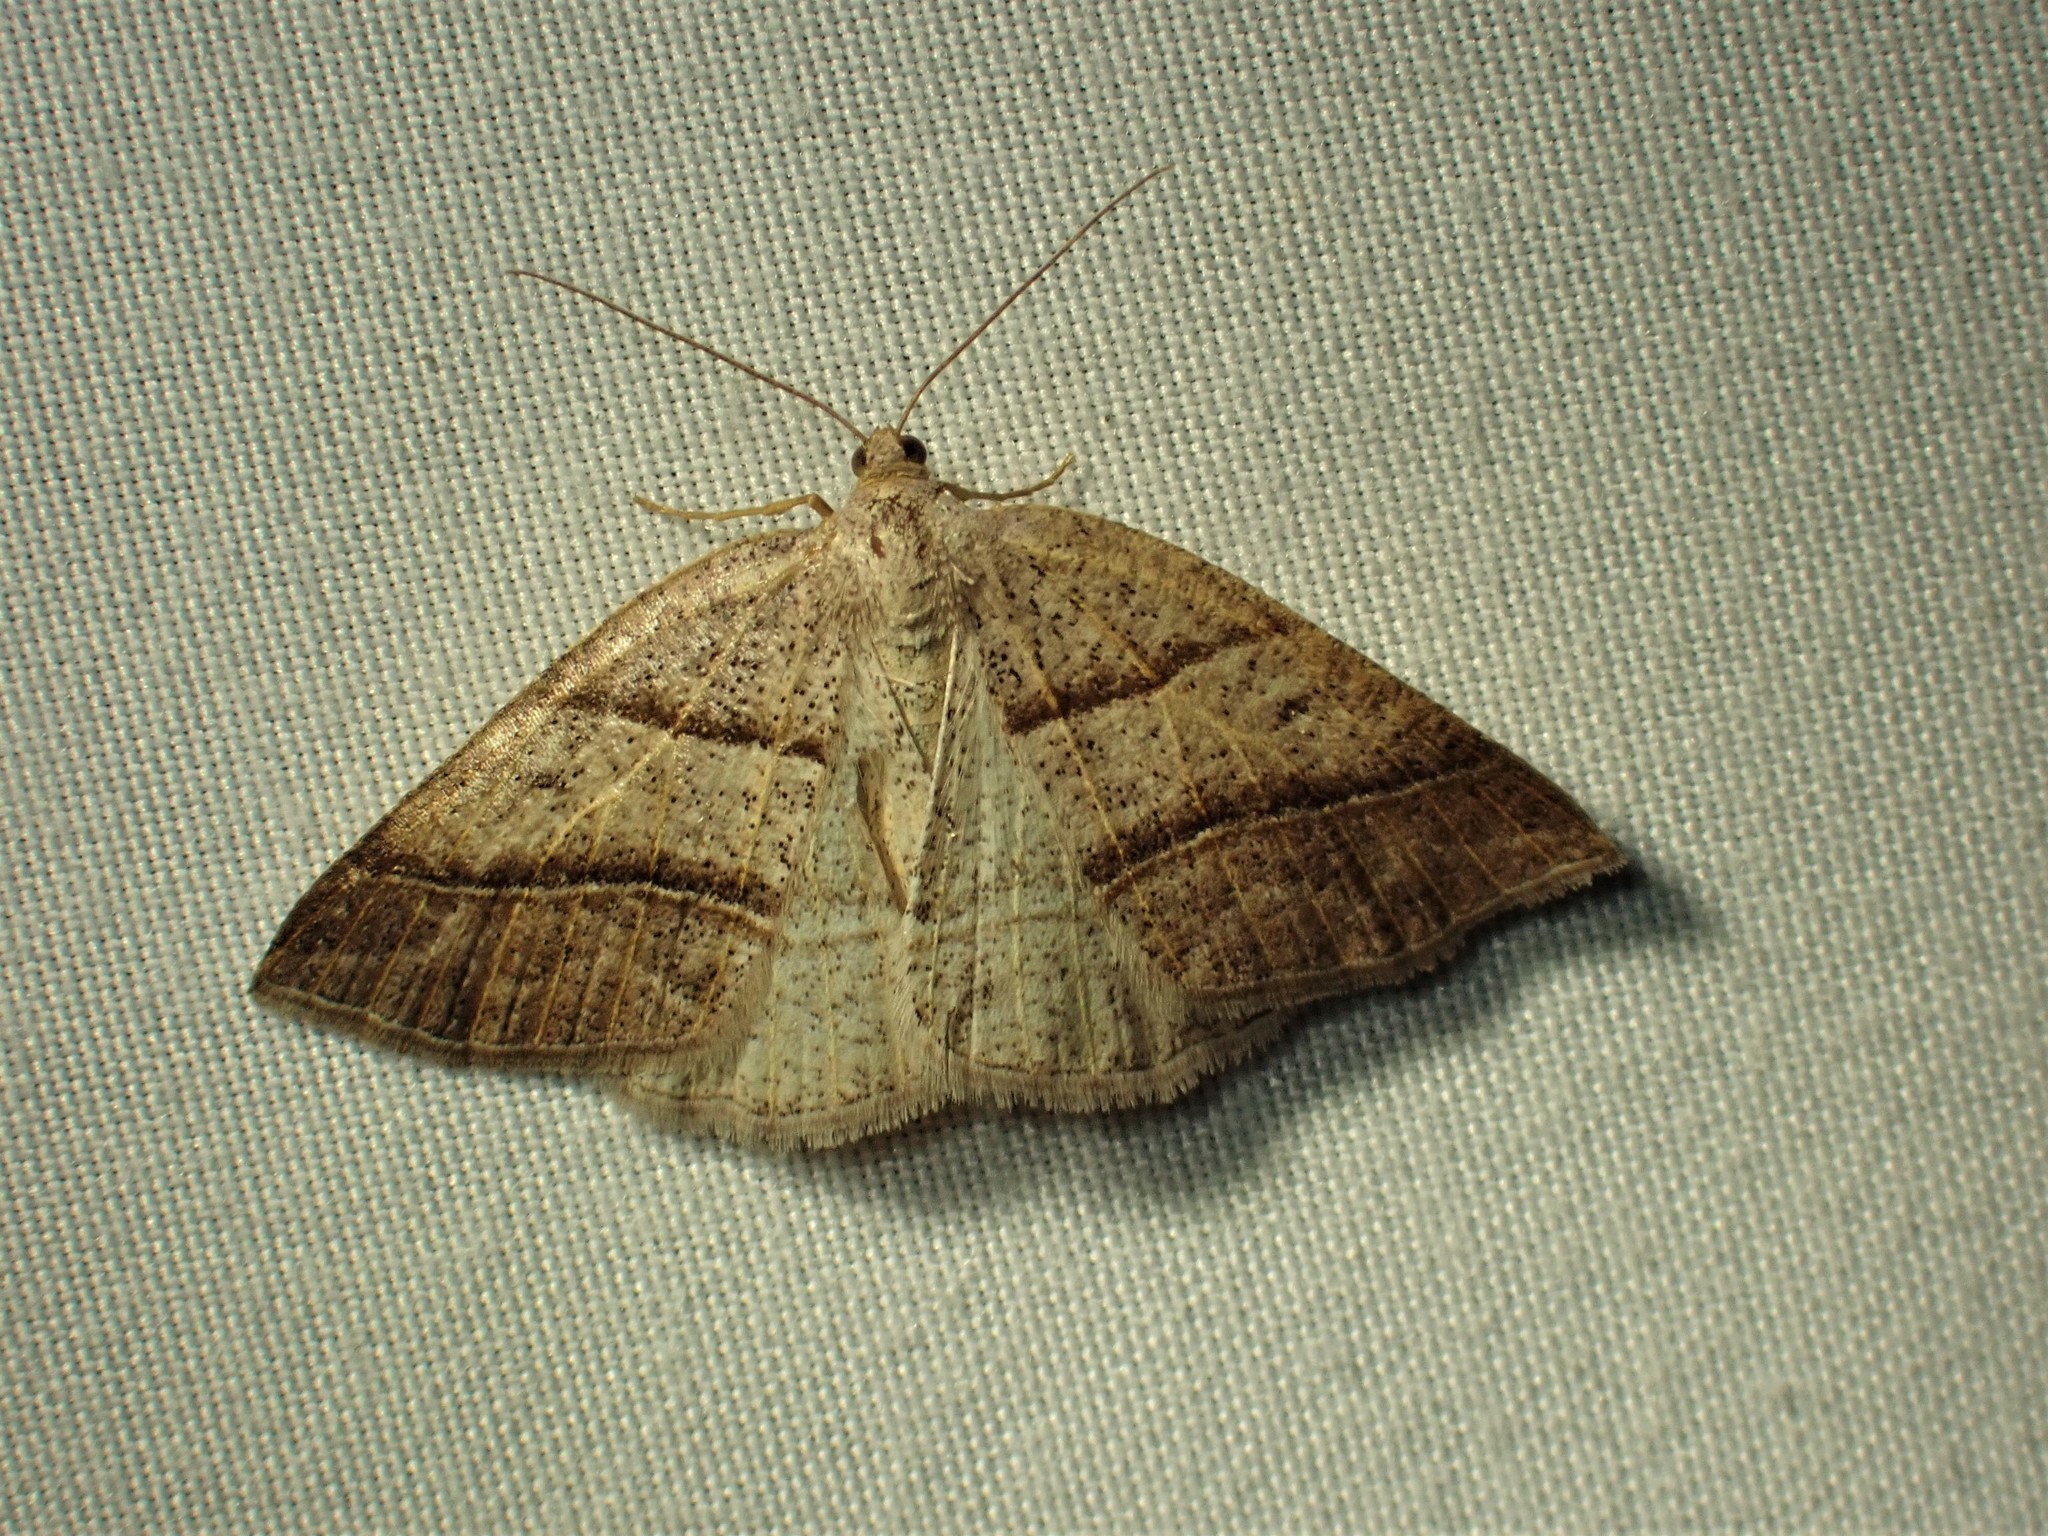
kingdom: Animalia
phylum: Arthropoda
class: Insecta
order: Lepidoptera
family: Pterophoridae
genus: Pterophorus
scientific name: Pterophorus Petrophora subaequaria
